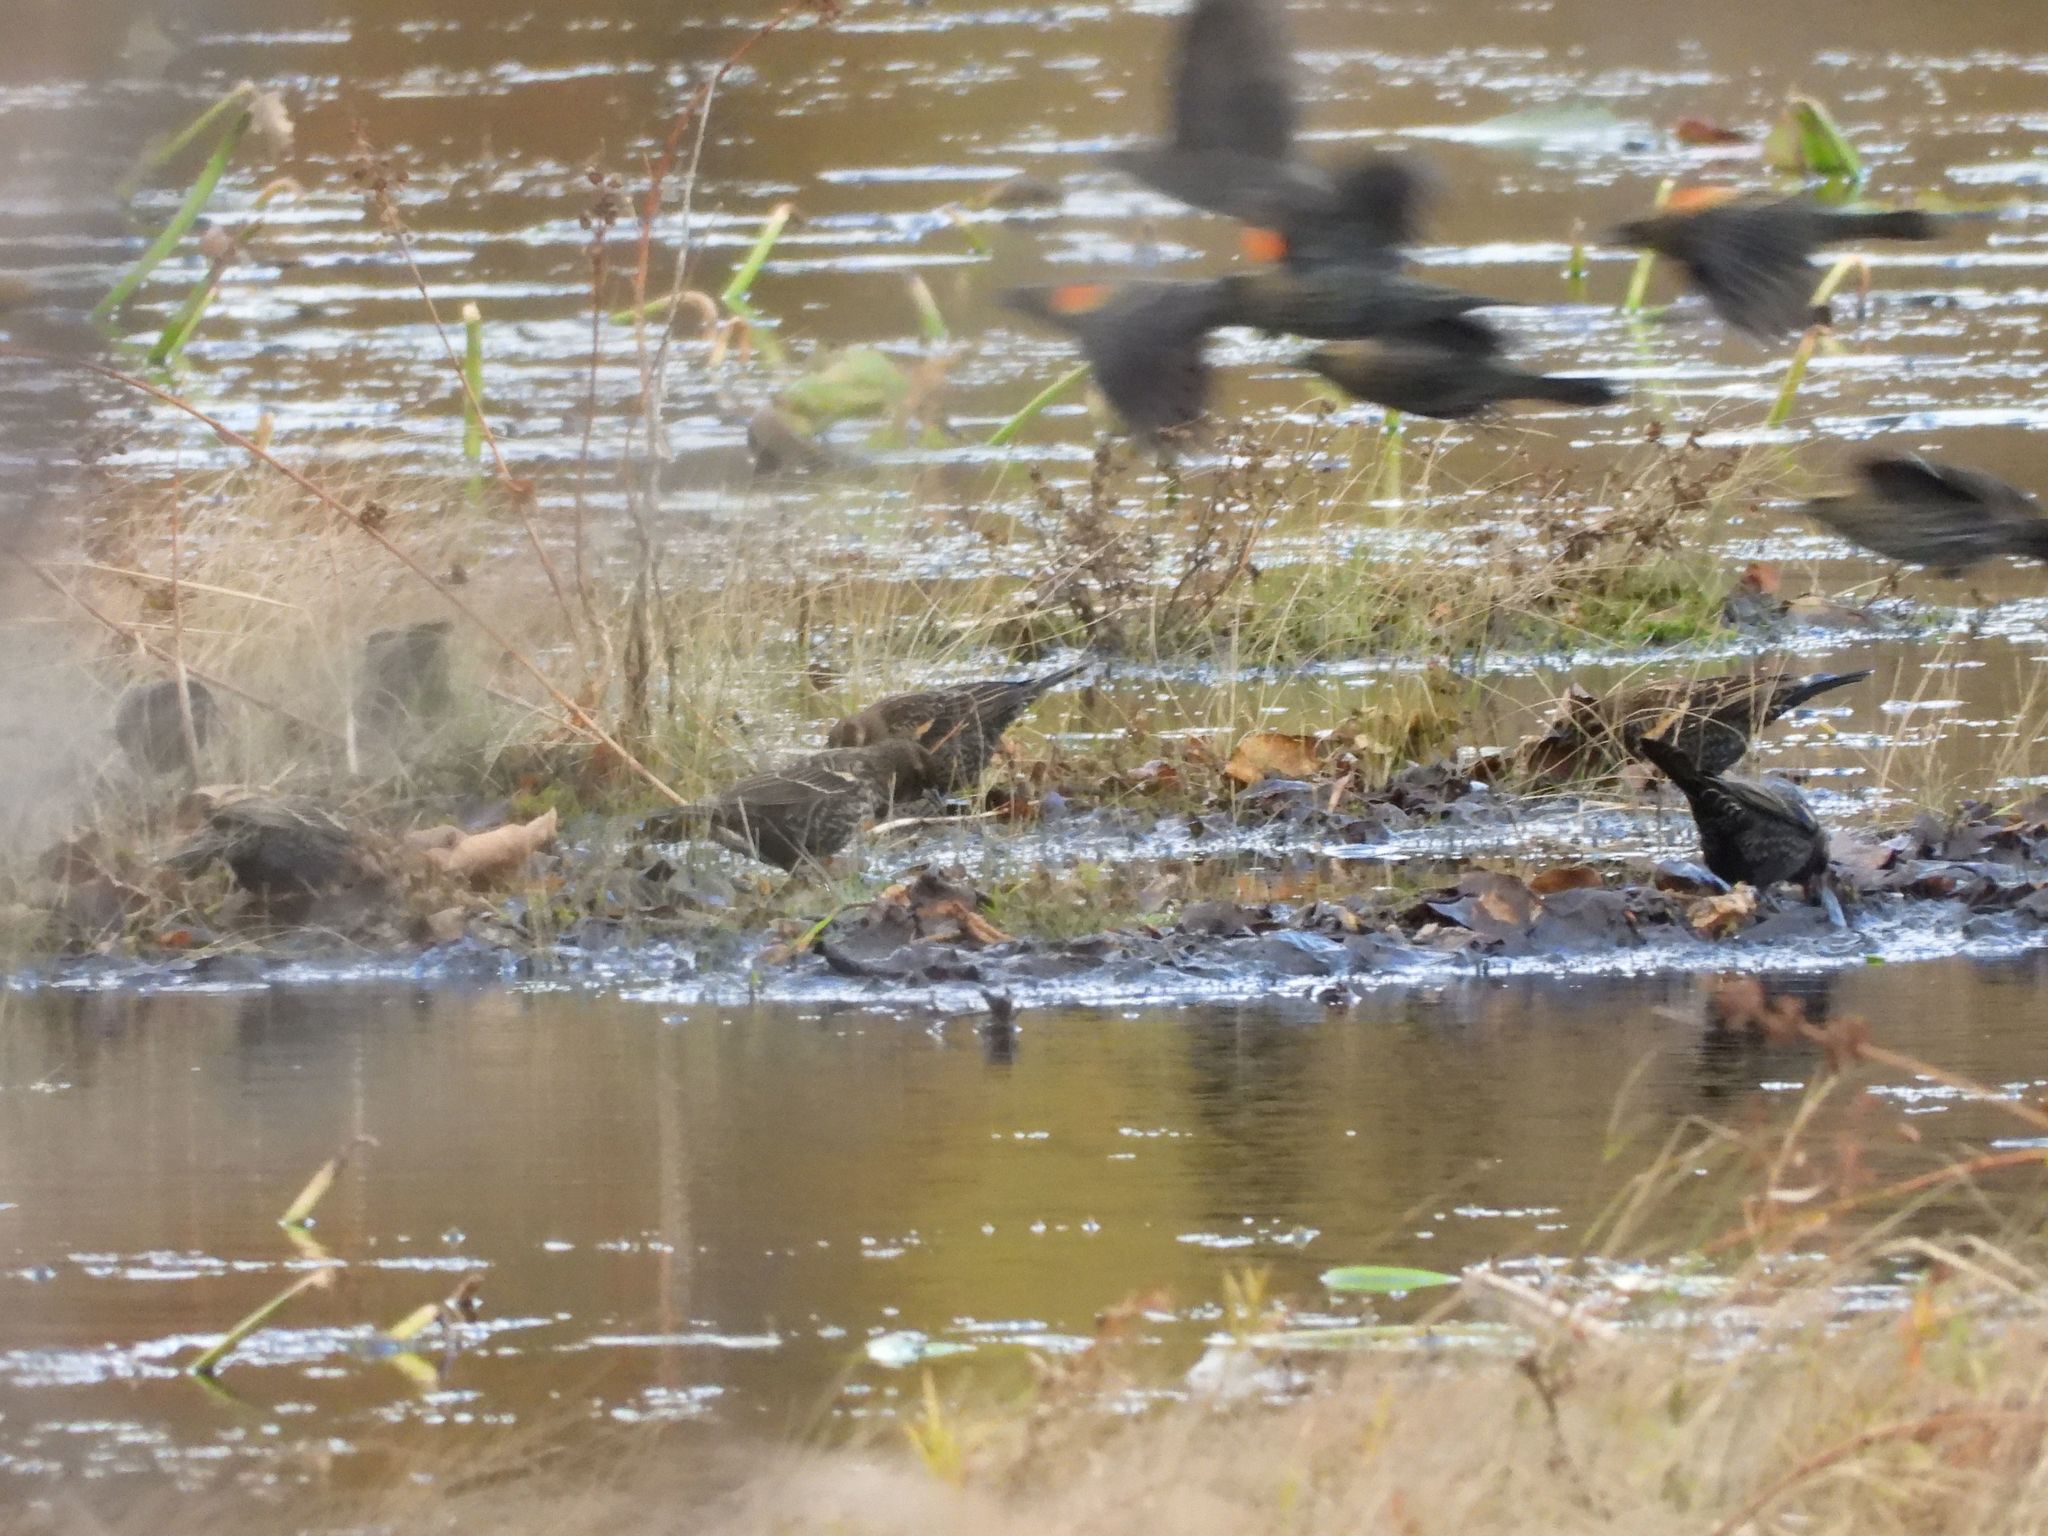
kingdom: Animalia
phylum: Chordata
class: Aves
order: Passeriformes
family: Icteridae
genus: Agelaius
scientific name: Agelaius phoeniceus
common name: Red-winged blackbird
